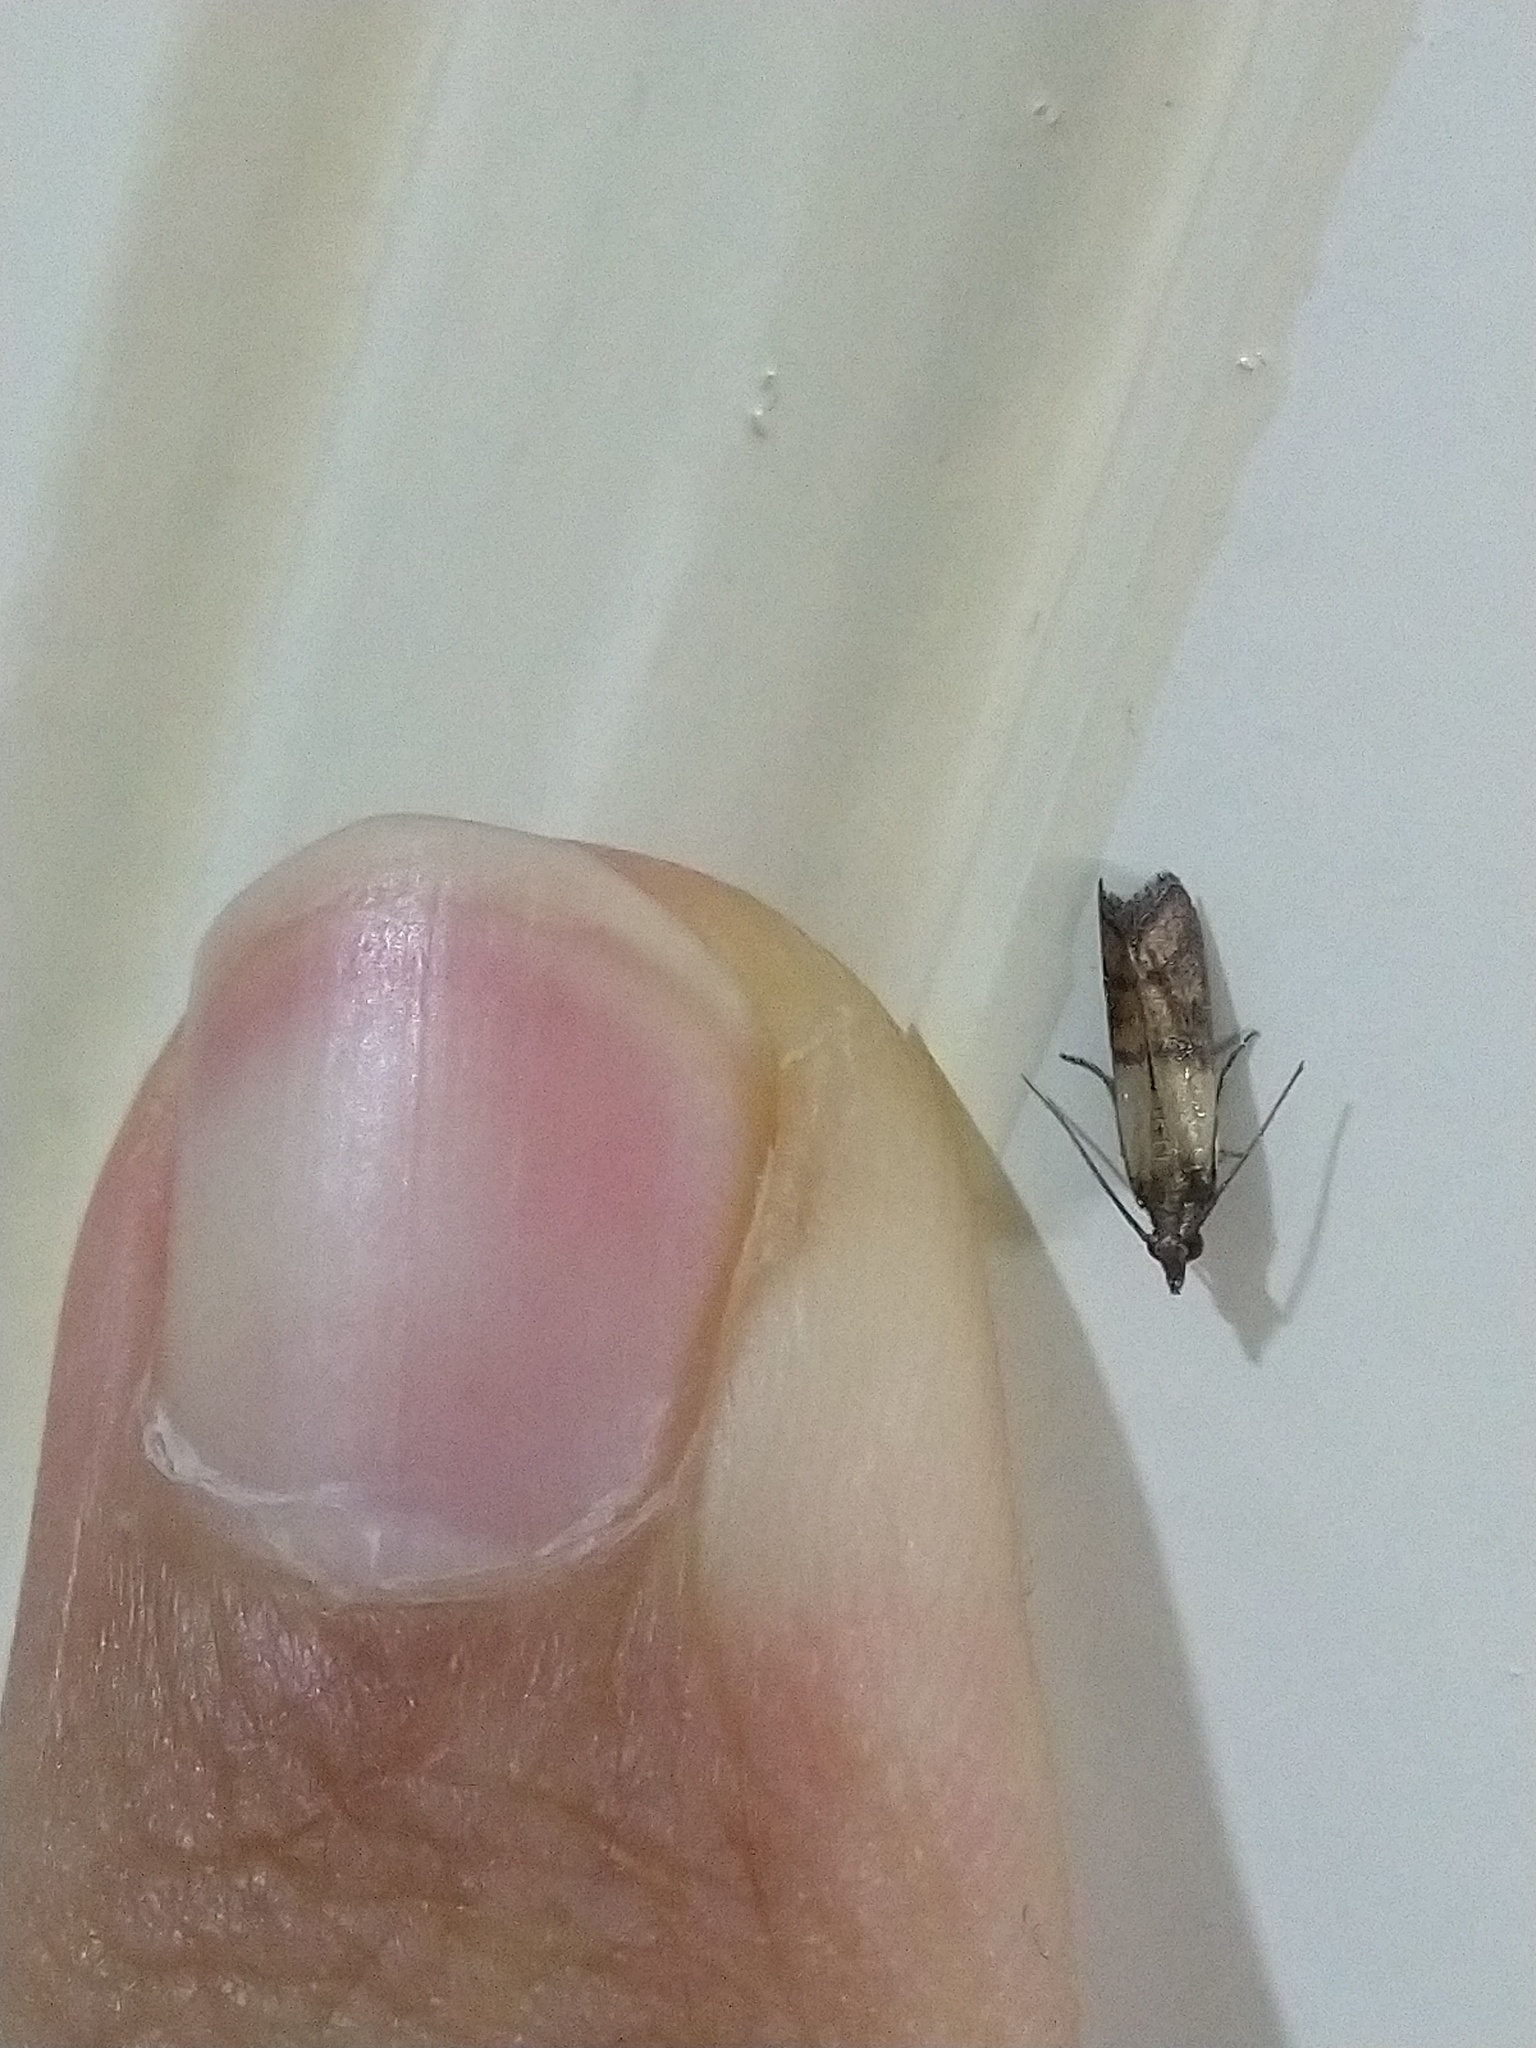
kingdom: Animalia
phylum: Arthropoda
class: Insecta
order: Lepidoptera
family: Pyralidae
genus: Plodia
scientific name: Plodia interpunctella
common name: Indian meal moth
